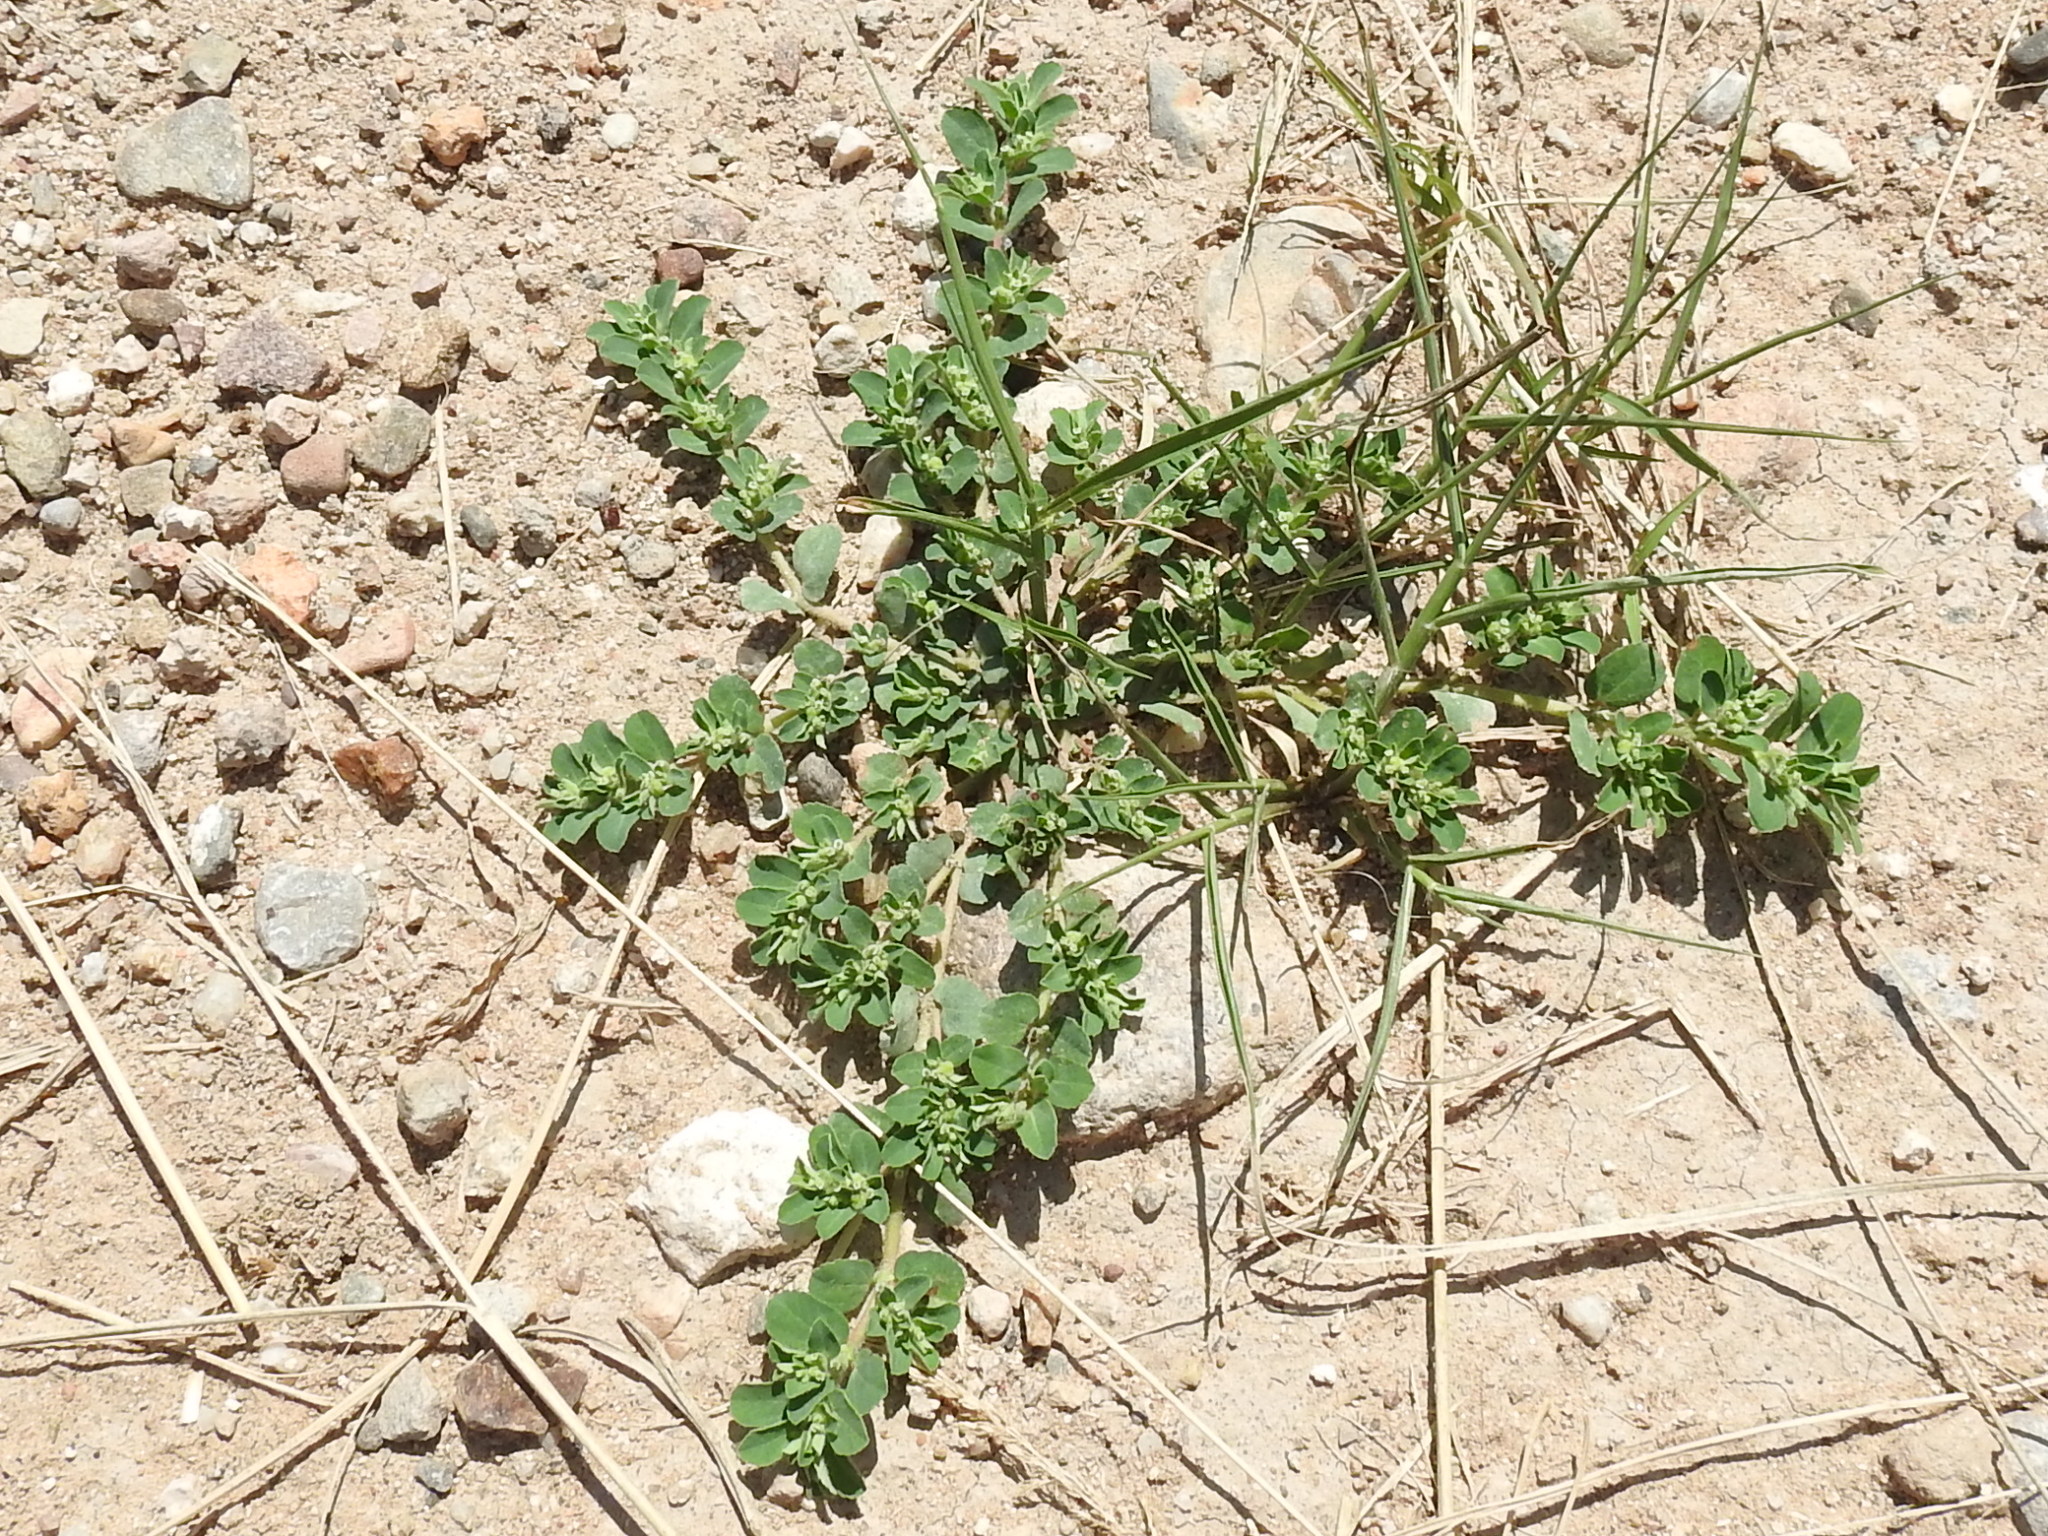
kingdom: Plantae
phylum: Tracheophyta
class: Magnoliopsida
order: Malpighiales
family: Euphorbiaceae
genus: Euphorbia
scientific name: Euphorbia stictospora
